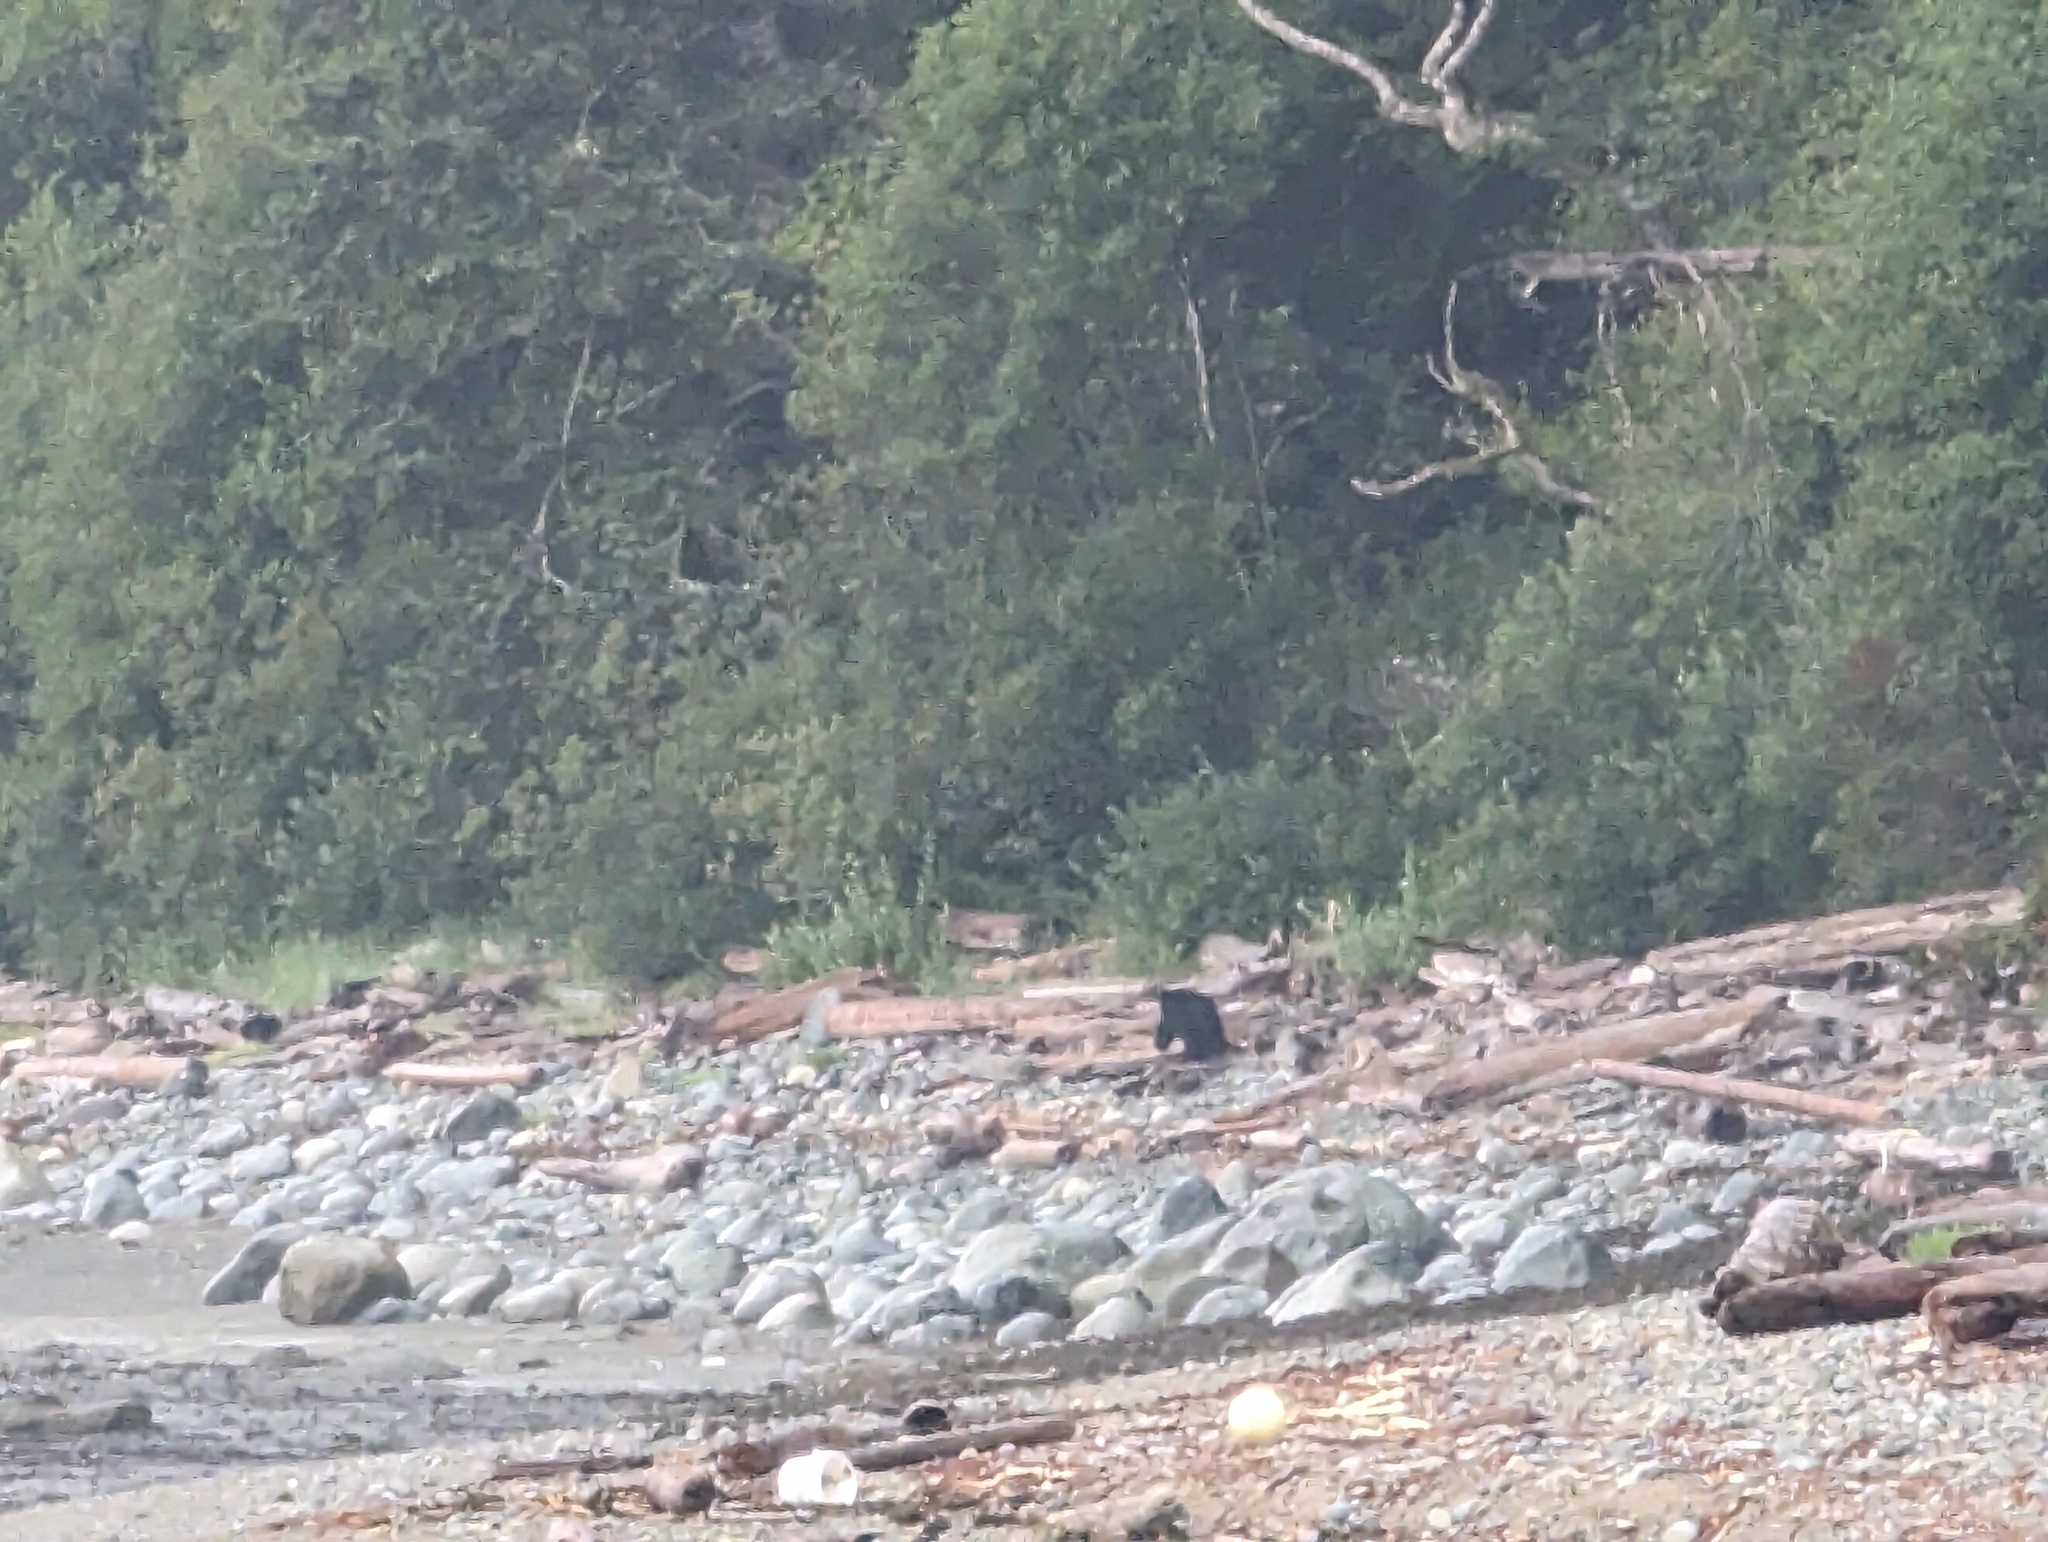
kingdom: Animalia
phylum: Chordata
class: Mammalia
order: Carnivora
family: Ursidae
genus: Ursus
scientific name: Ursus americanus
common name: American black bear
